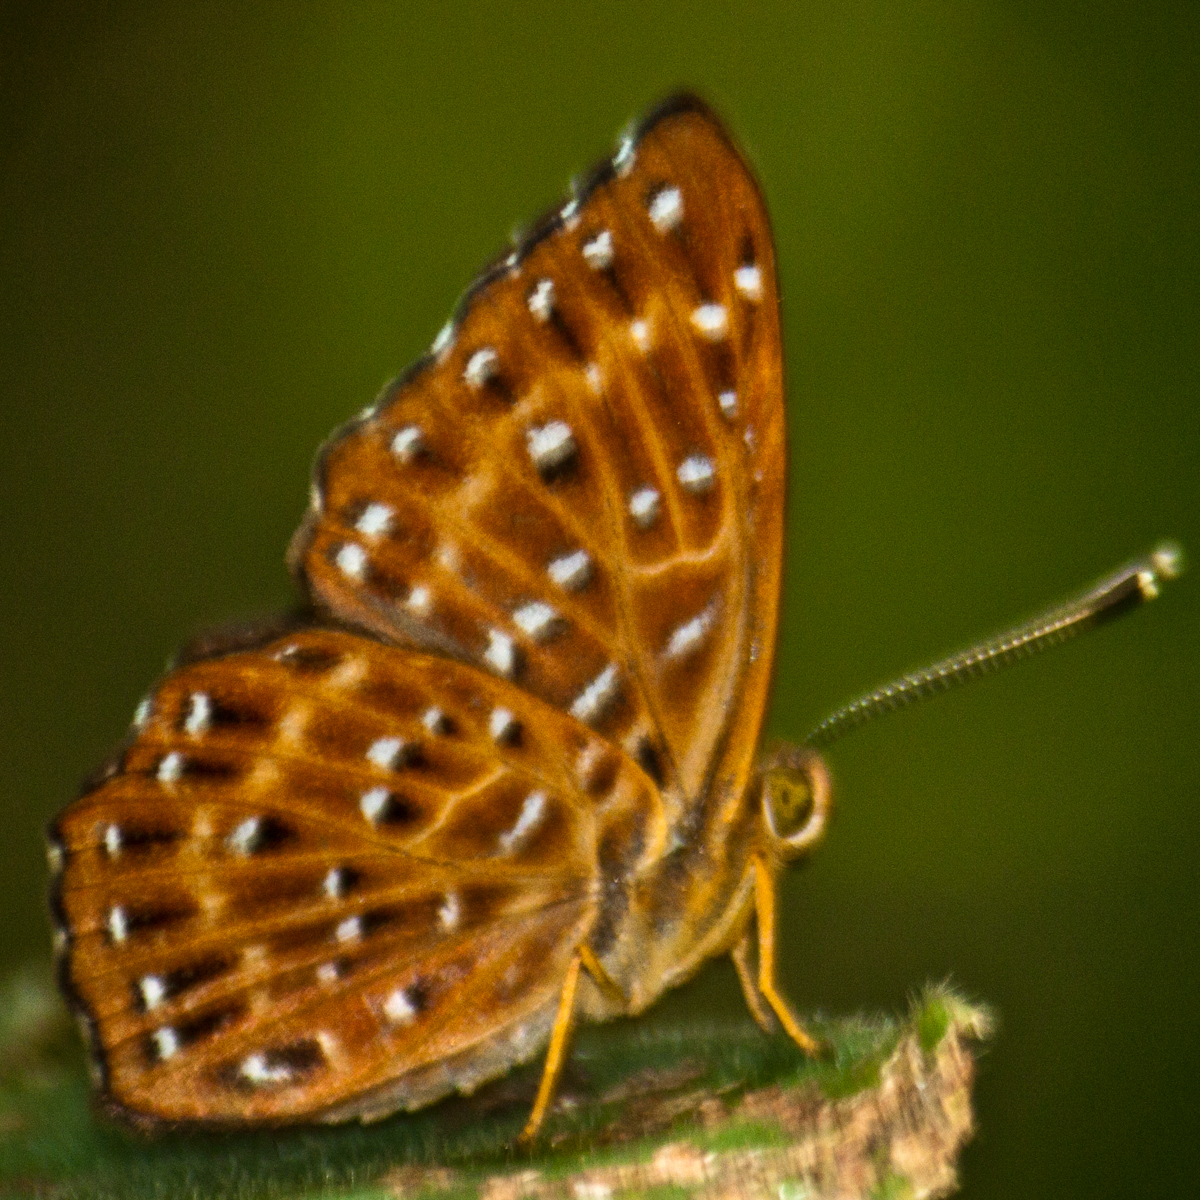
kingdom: Animalia
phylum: Arthropoda
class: Insecta
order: Lepidoptera
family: Riodinidae
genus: Zemeros
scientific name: Zemeros flegyas
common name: Punchinello
